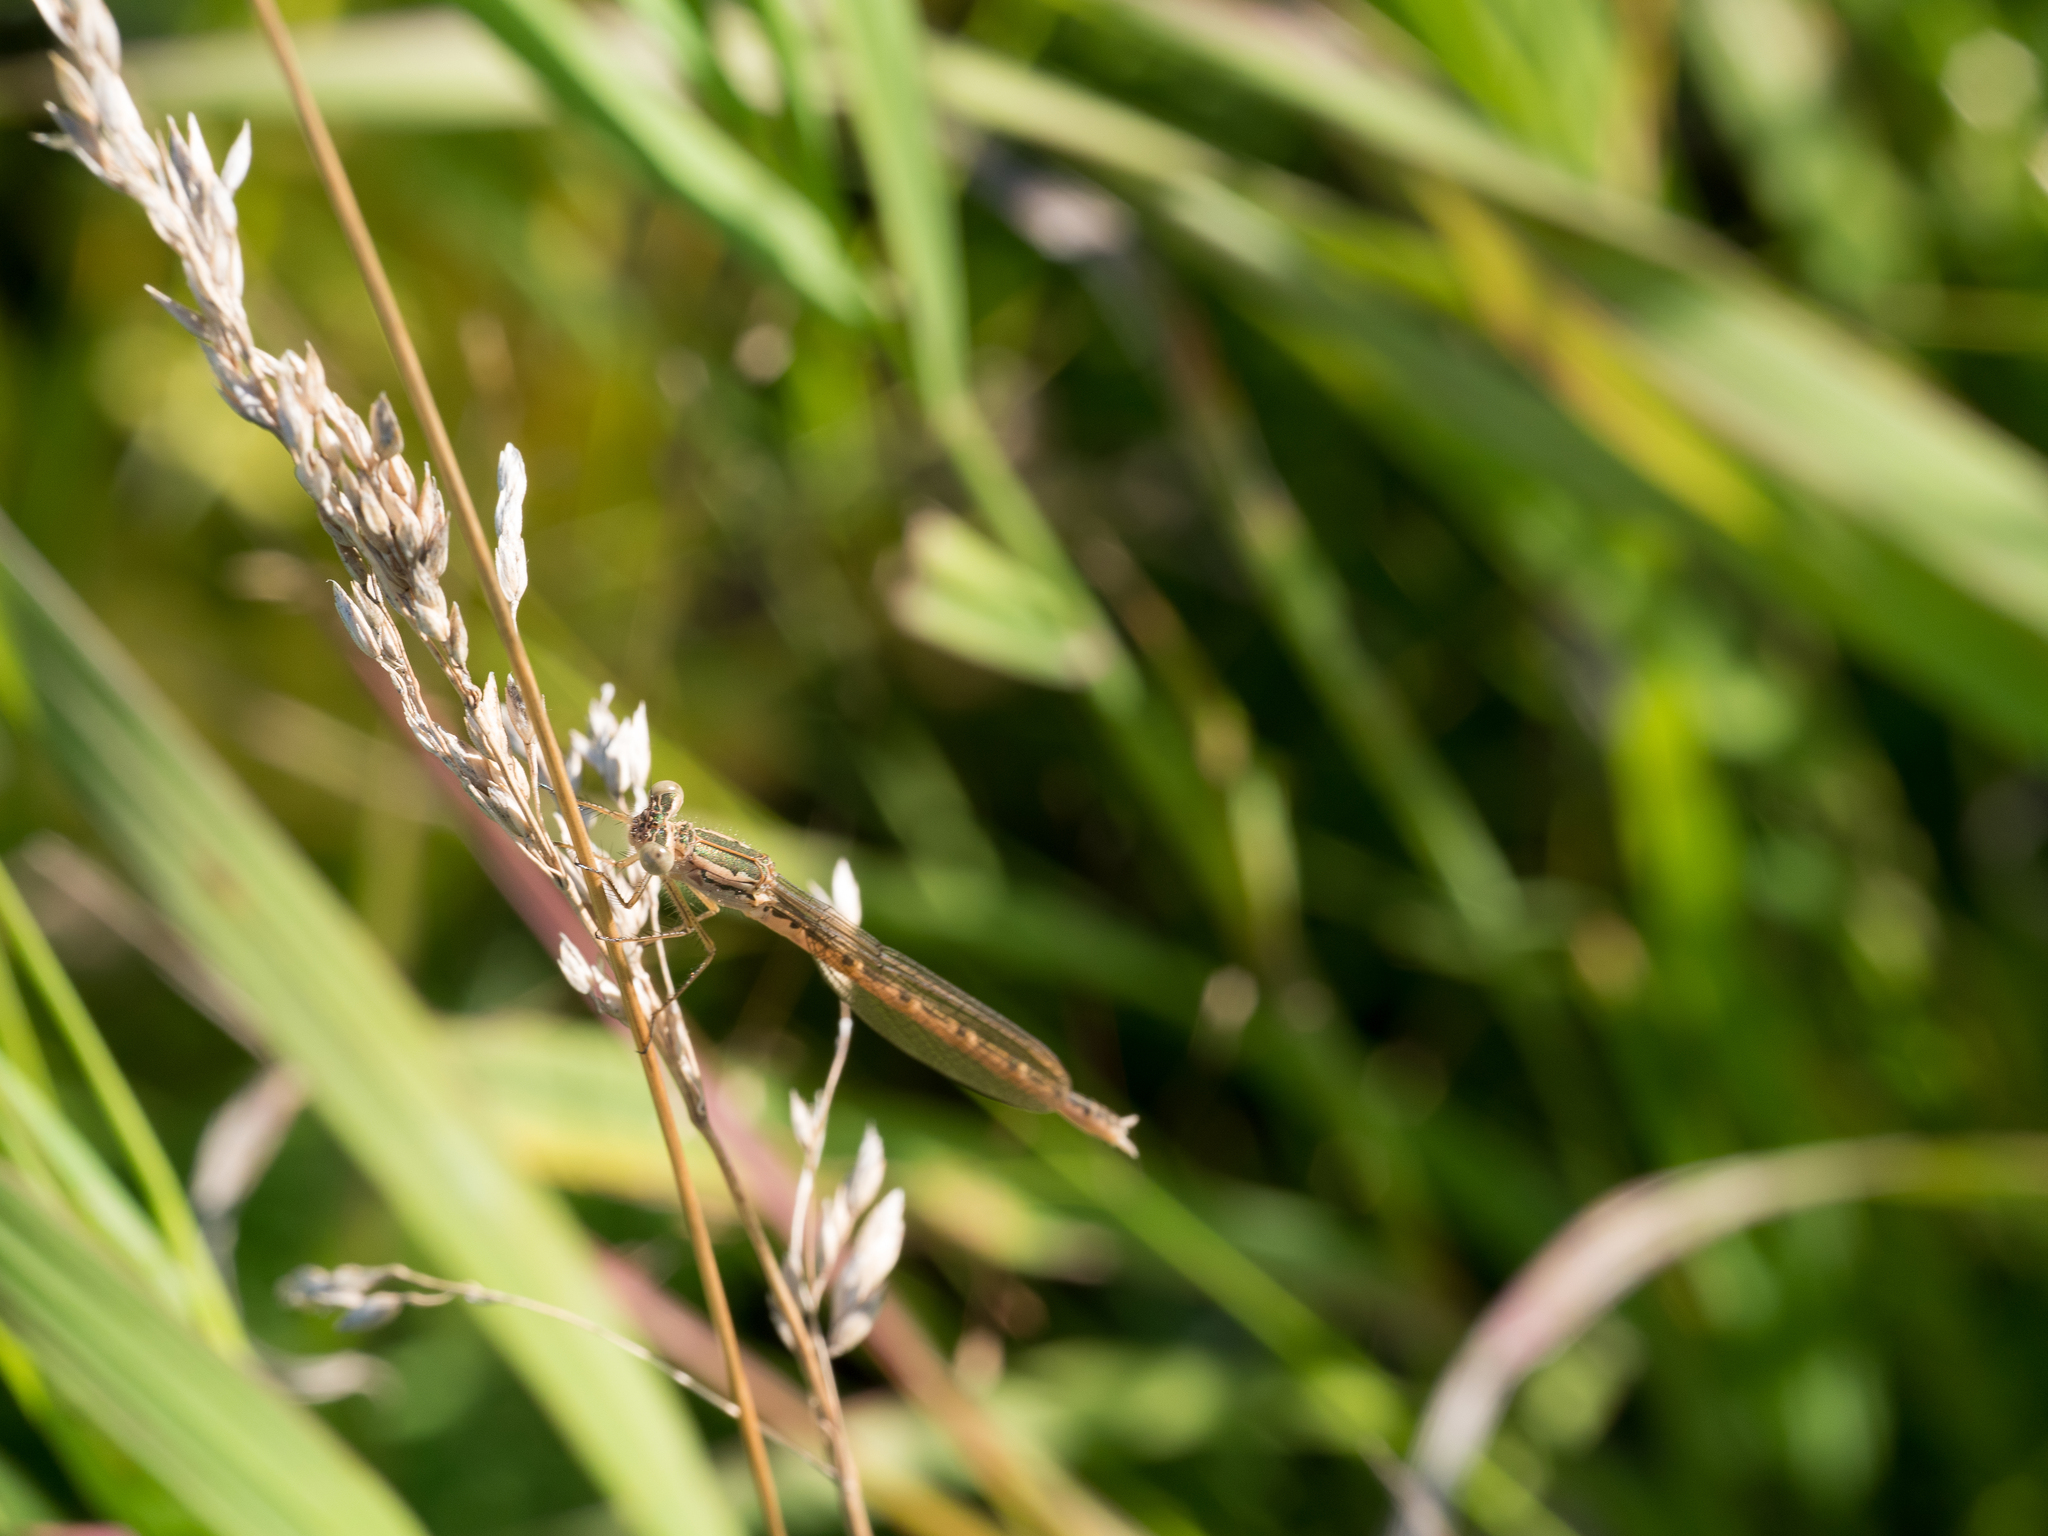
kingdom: Animalia
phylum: Arthropoda
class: Insecta
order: Odonata
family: Lestidae
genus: Sympecma
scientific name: Sympecma paedisca
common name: Siberian winter damsel
